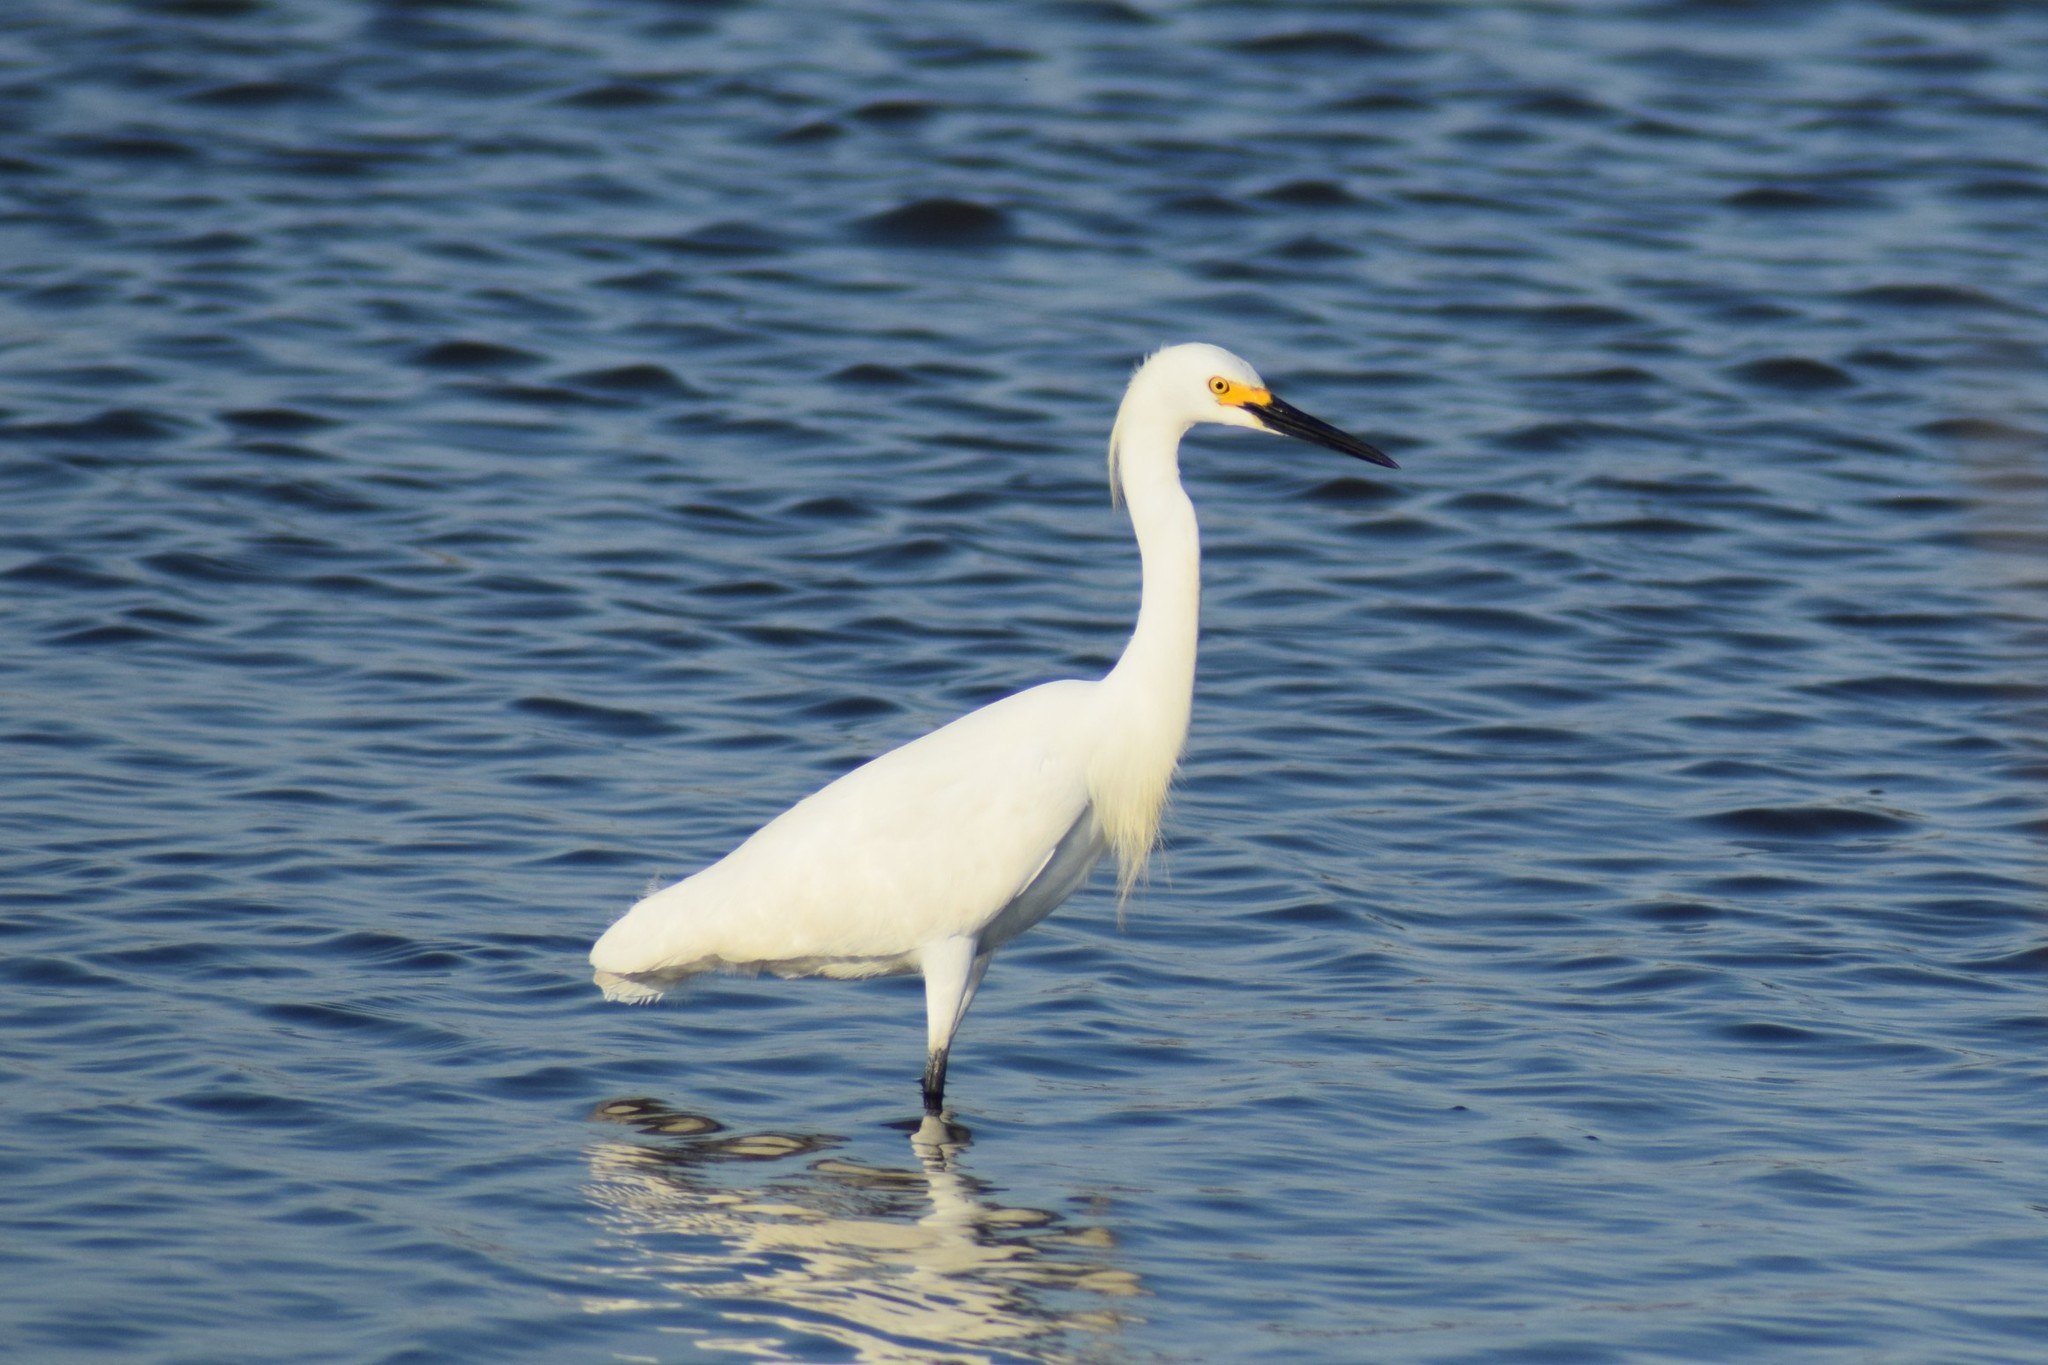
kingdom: Animalia
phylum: Chordata
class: Aves
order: Pelecaniformes
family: Ardeidae
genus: Egretta
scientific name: Egretta thula
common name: Snowy egret
